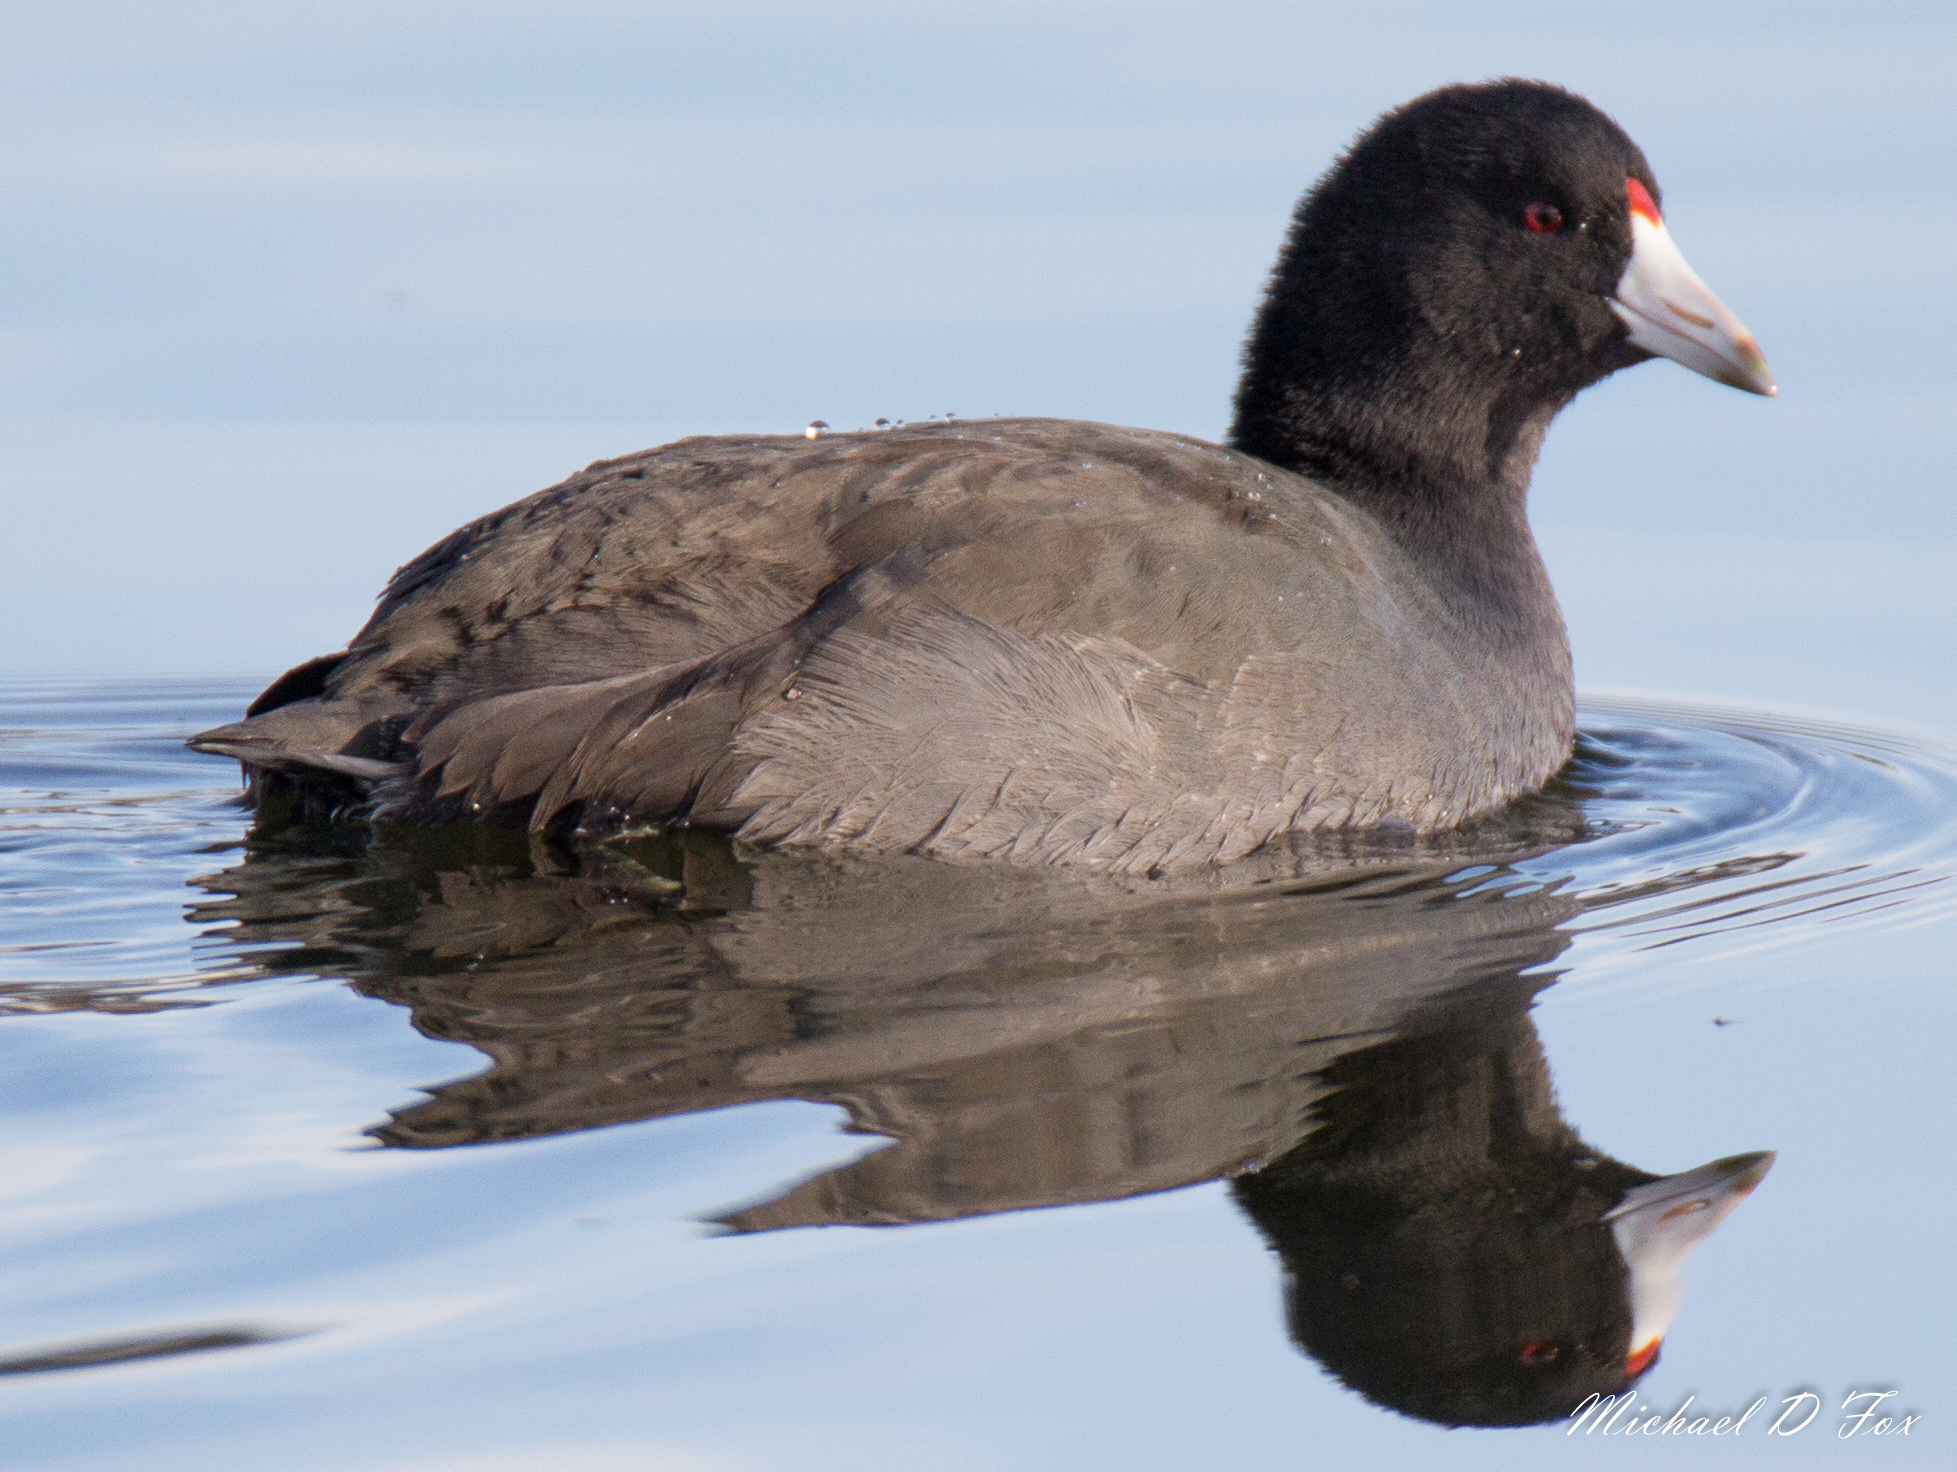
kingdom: Animalia
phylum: Chordata
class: Aves
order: Gruiformes
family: Rallidae
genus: Fulica
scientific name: Fulica americana
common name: American coot
